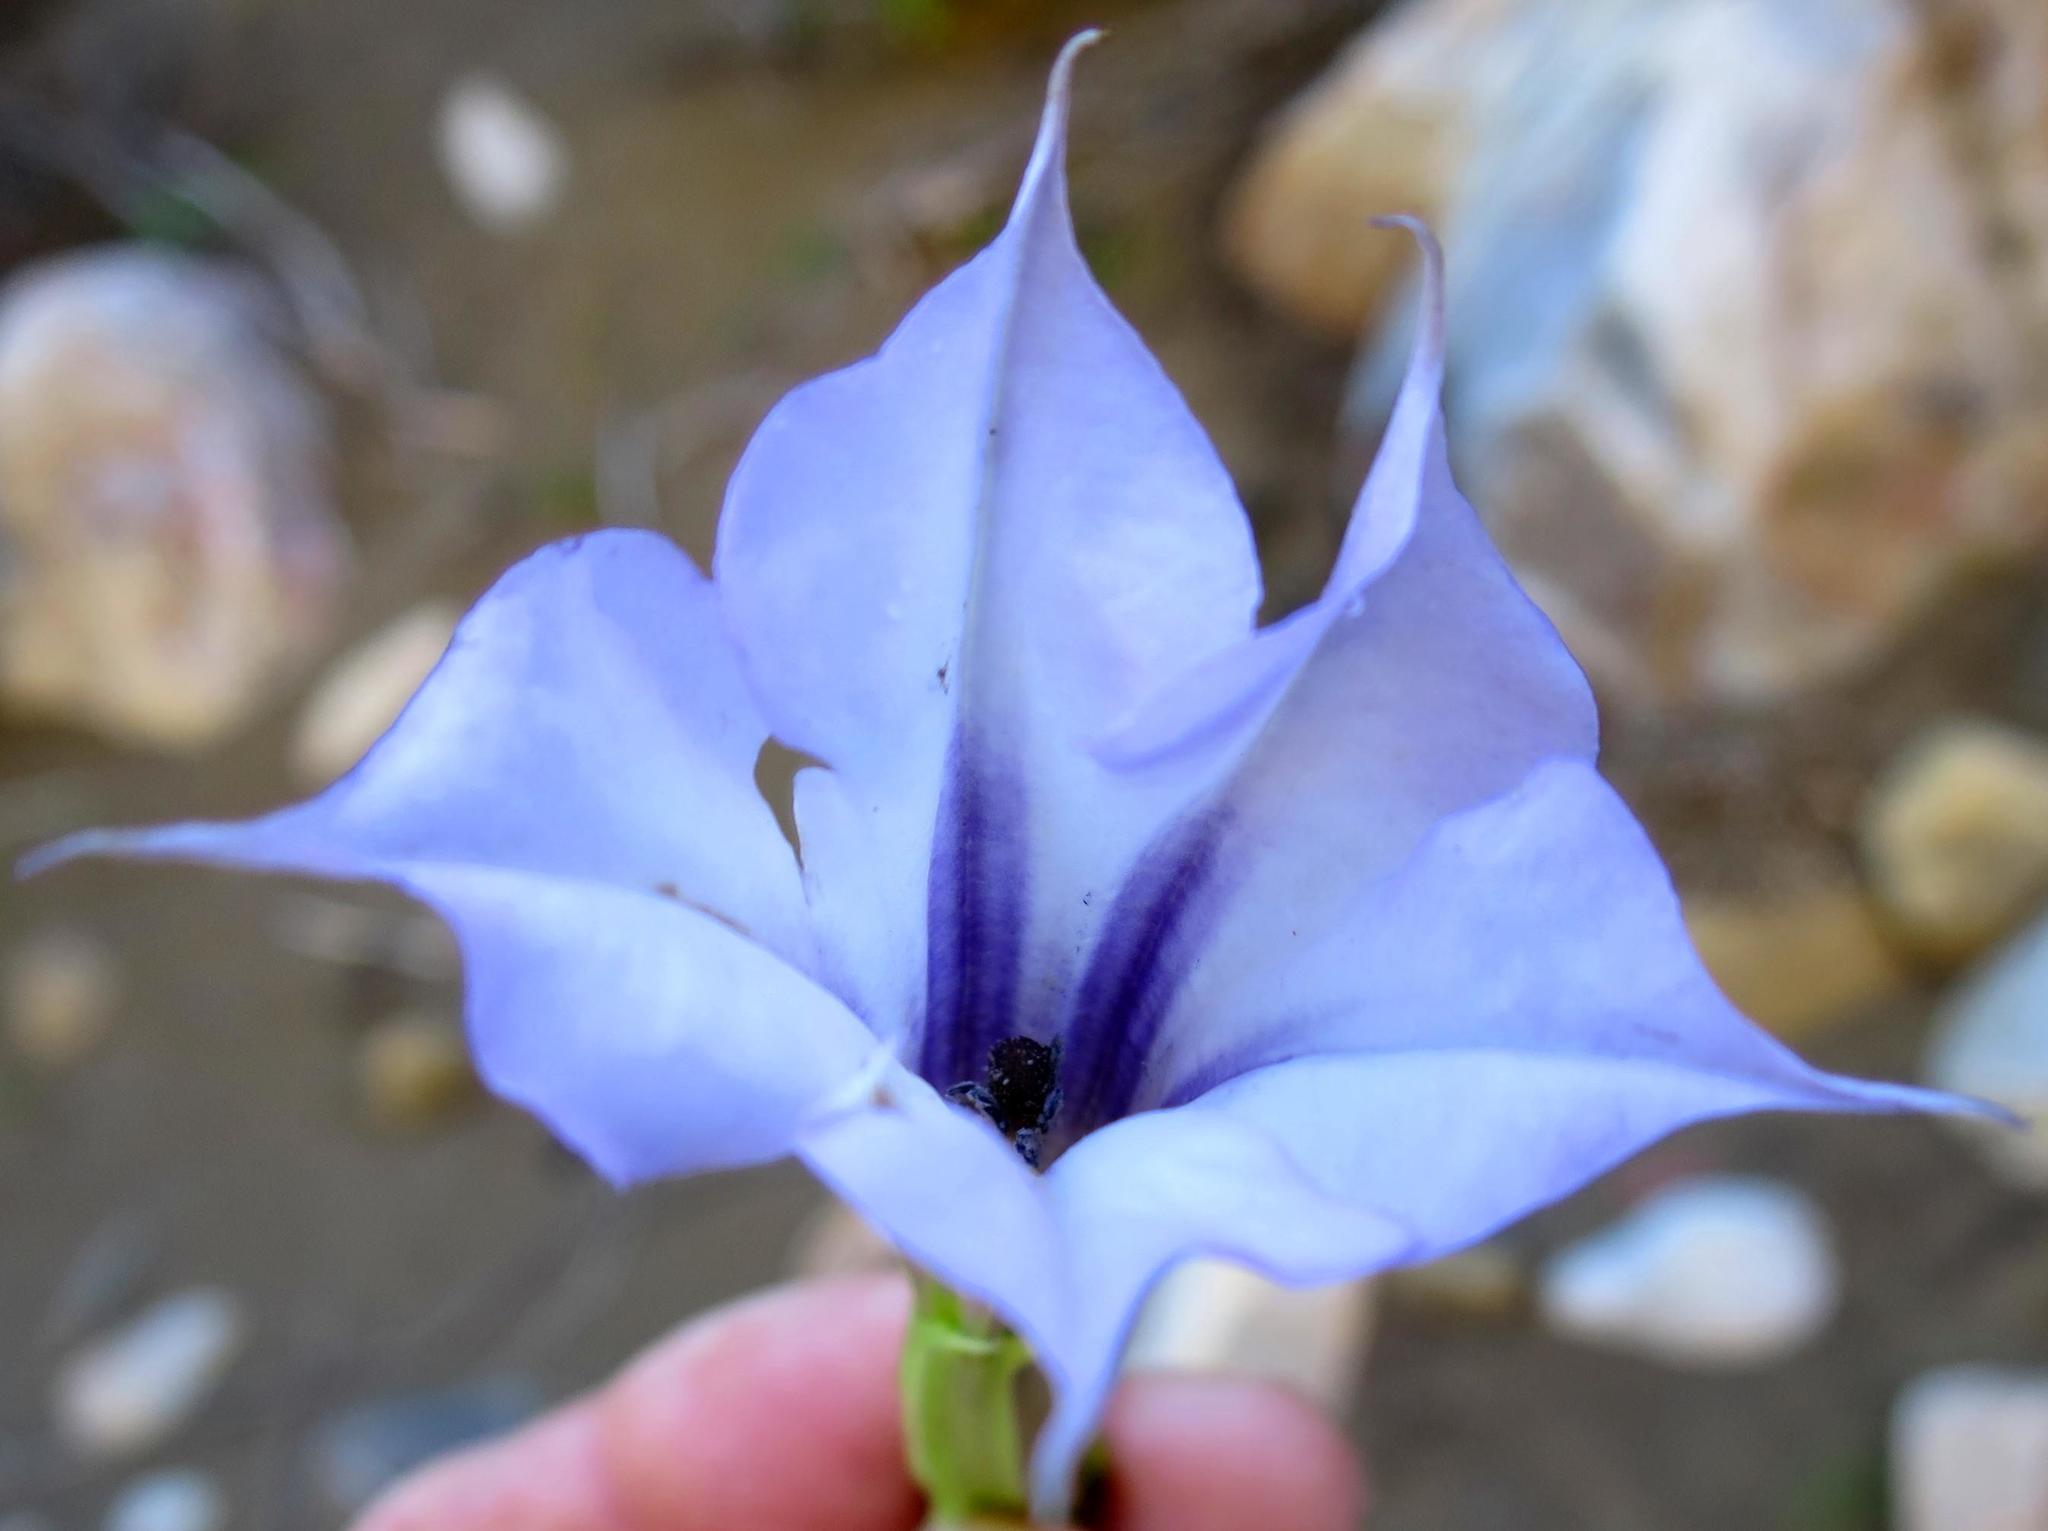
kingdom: Plantae
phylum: Tracheophyta
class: Magnoliopsida
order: Solanales
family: Solanaceae
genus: Datura
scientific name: Datura stramonium
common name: Thorn-apple
